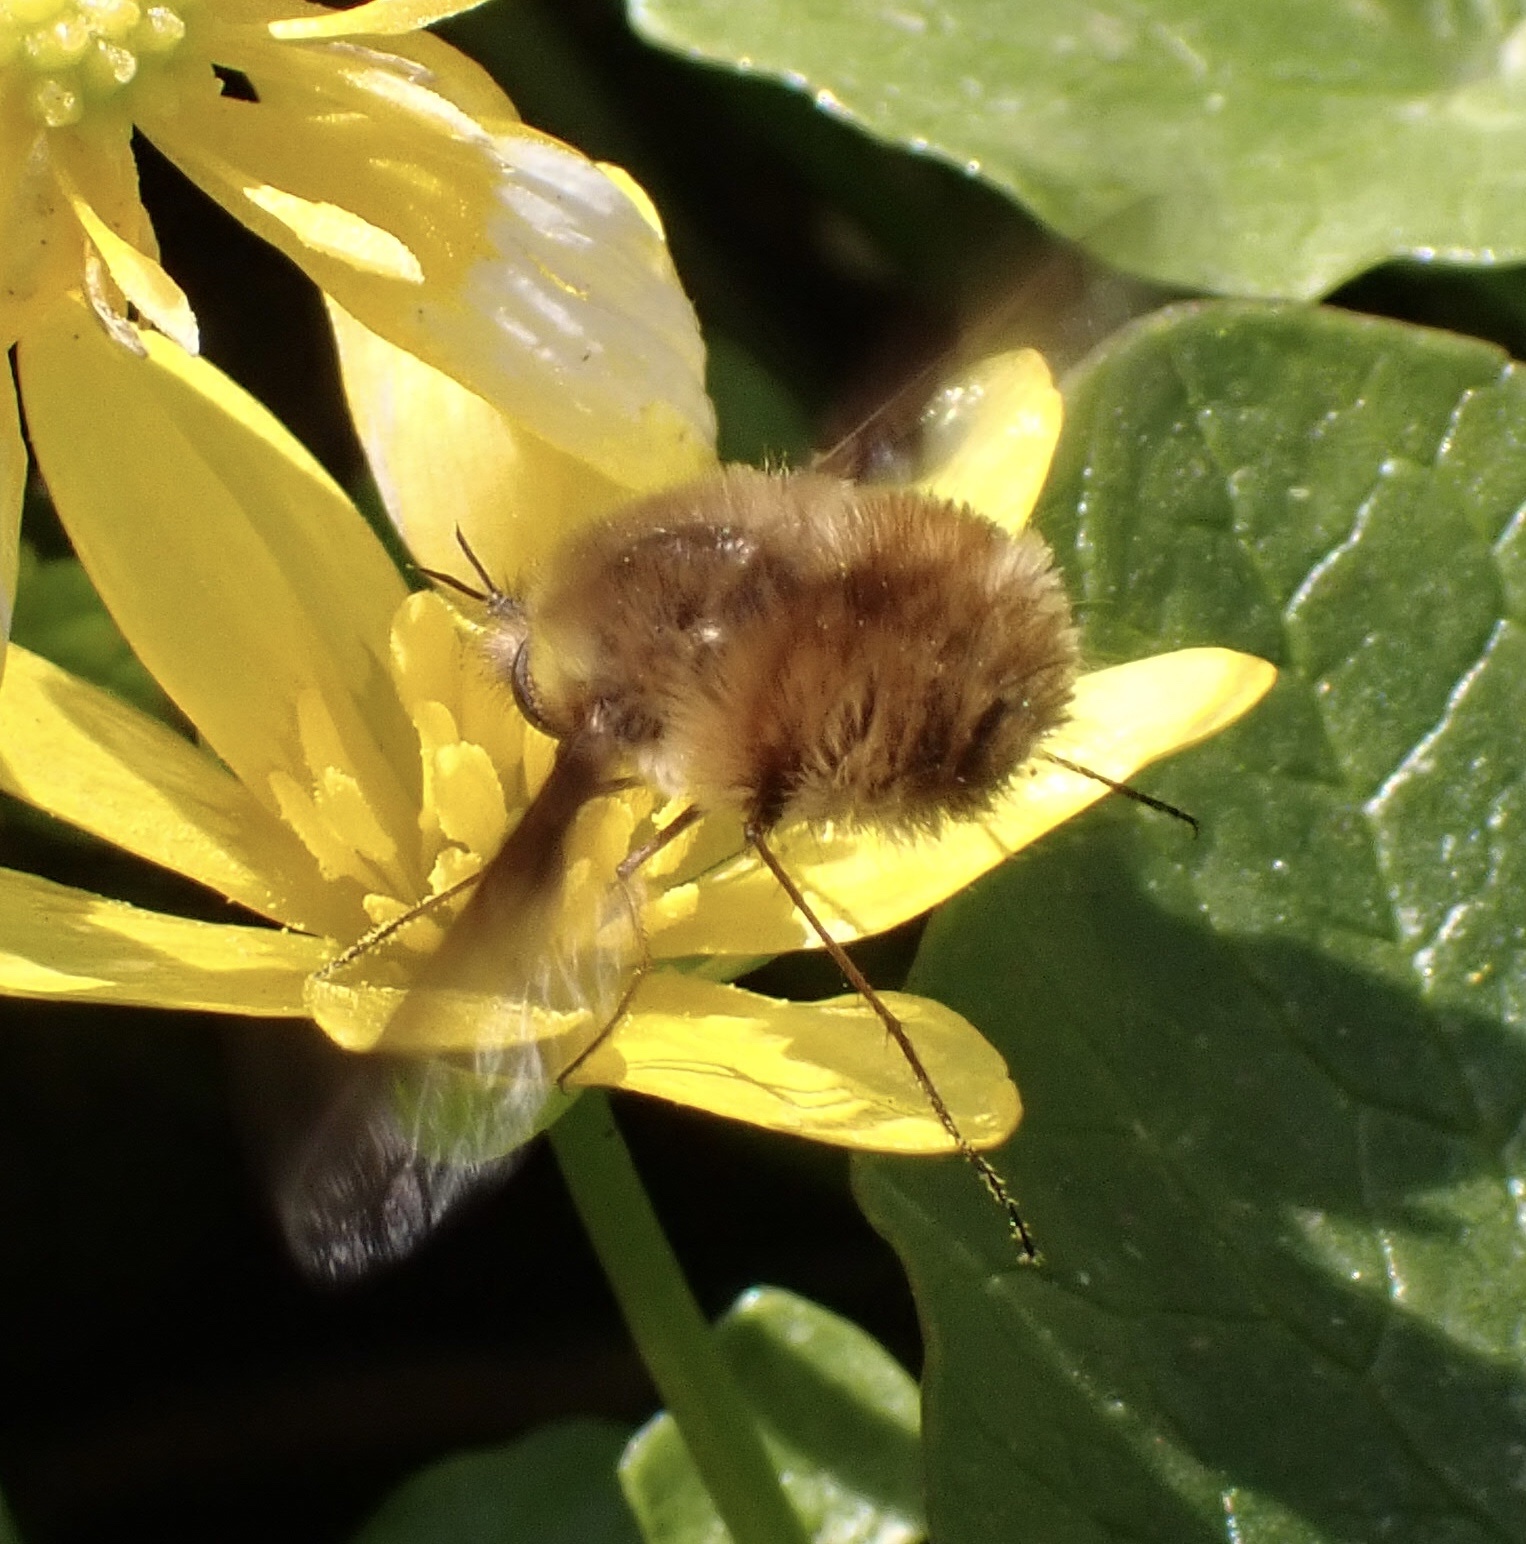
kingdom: Animalia
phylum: Arthropoda
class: Insecta
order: Diptera
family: Bombyliidae
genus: Bombylius
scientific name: Bombylius major
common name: Bee fly
